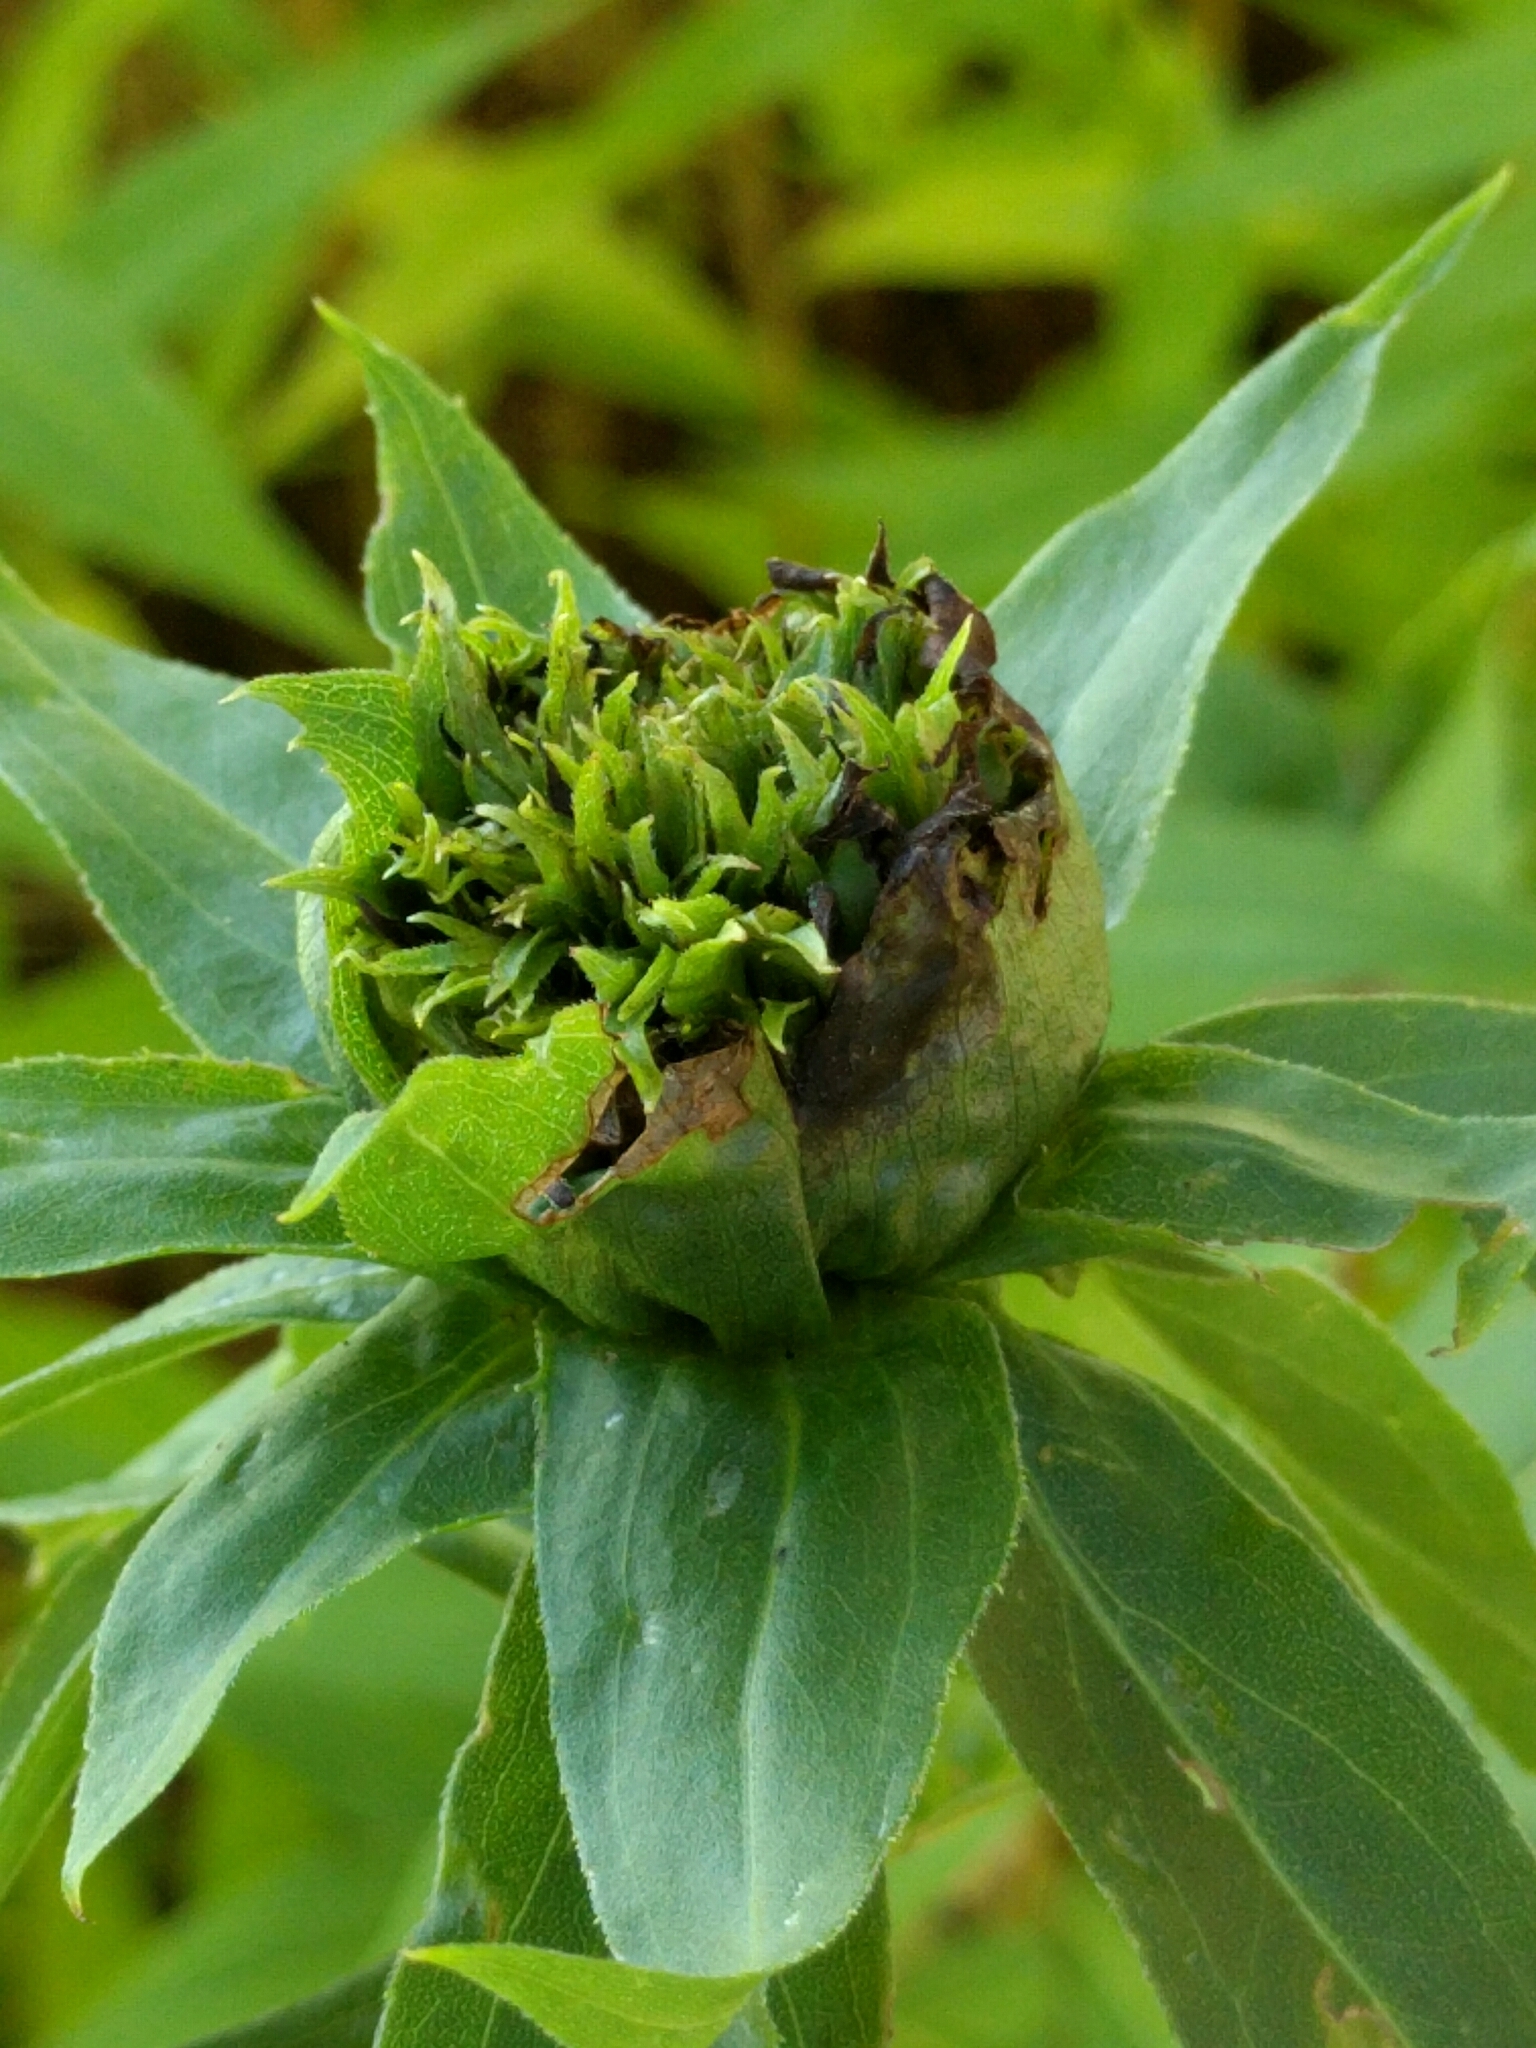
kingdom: Animalia
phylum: Arthropoda
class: Insecta
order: Diptera
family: Cecidomyiidae
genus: Rhopalomyia
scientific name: Rhopalomyia capitata
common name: Giant goldenrod bunch gall midge
